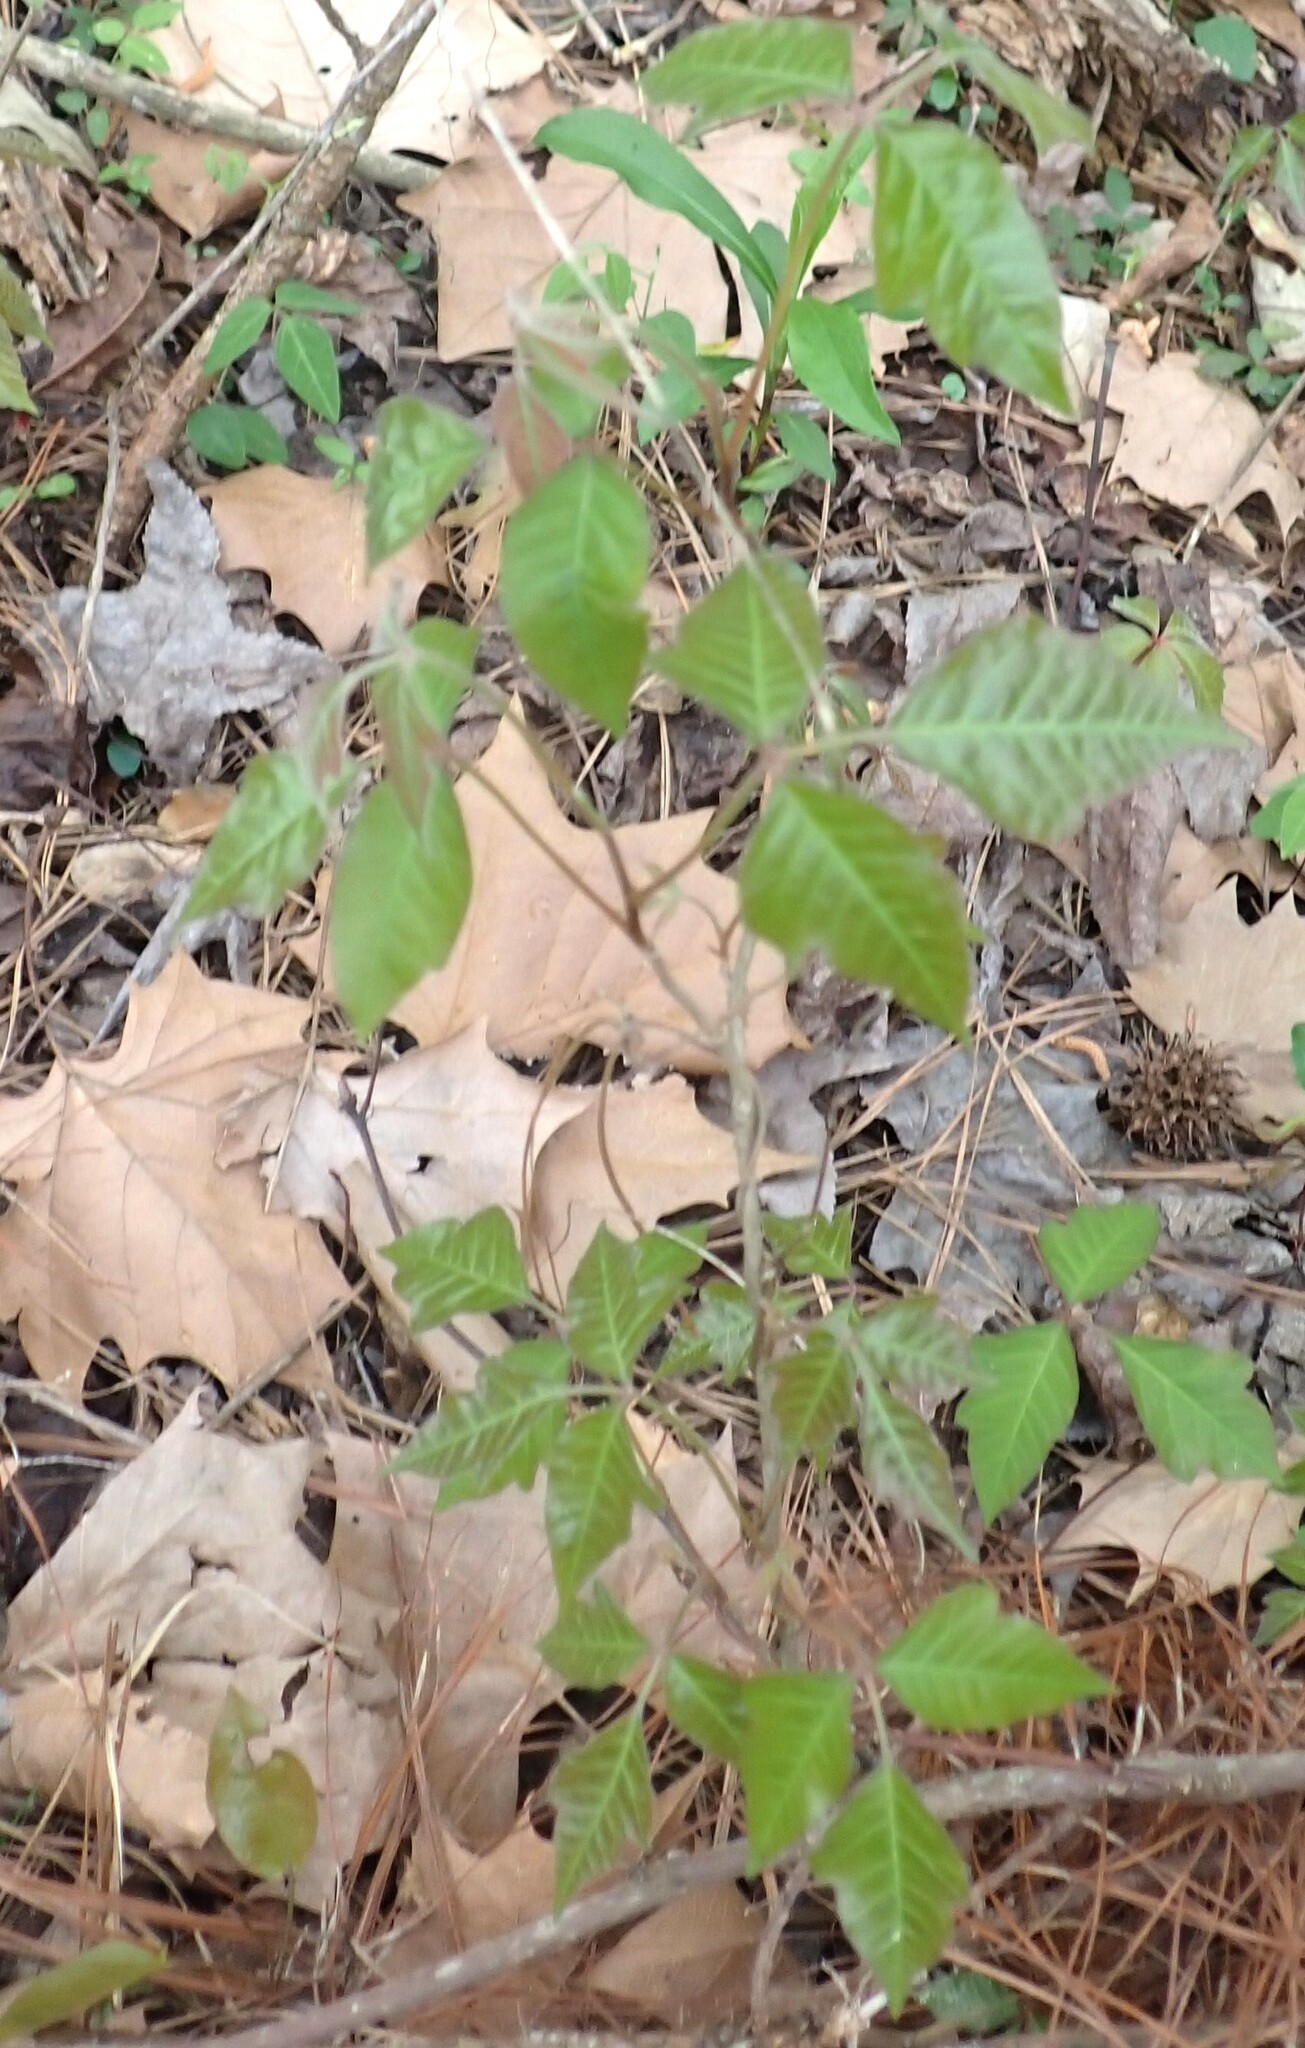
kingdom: Plantae
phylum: Tracheophyta
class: Magnoliopsida
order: Sapindales
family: Anacardiaceae
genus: Toxicodendron
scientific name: Toxicodendron radicans
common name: Poison ivy
